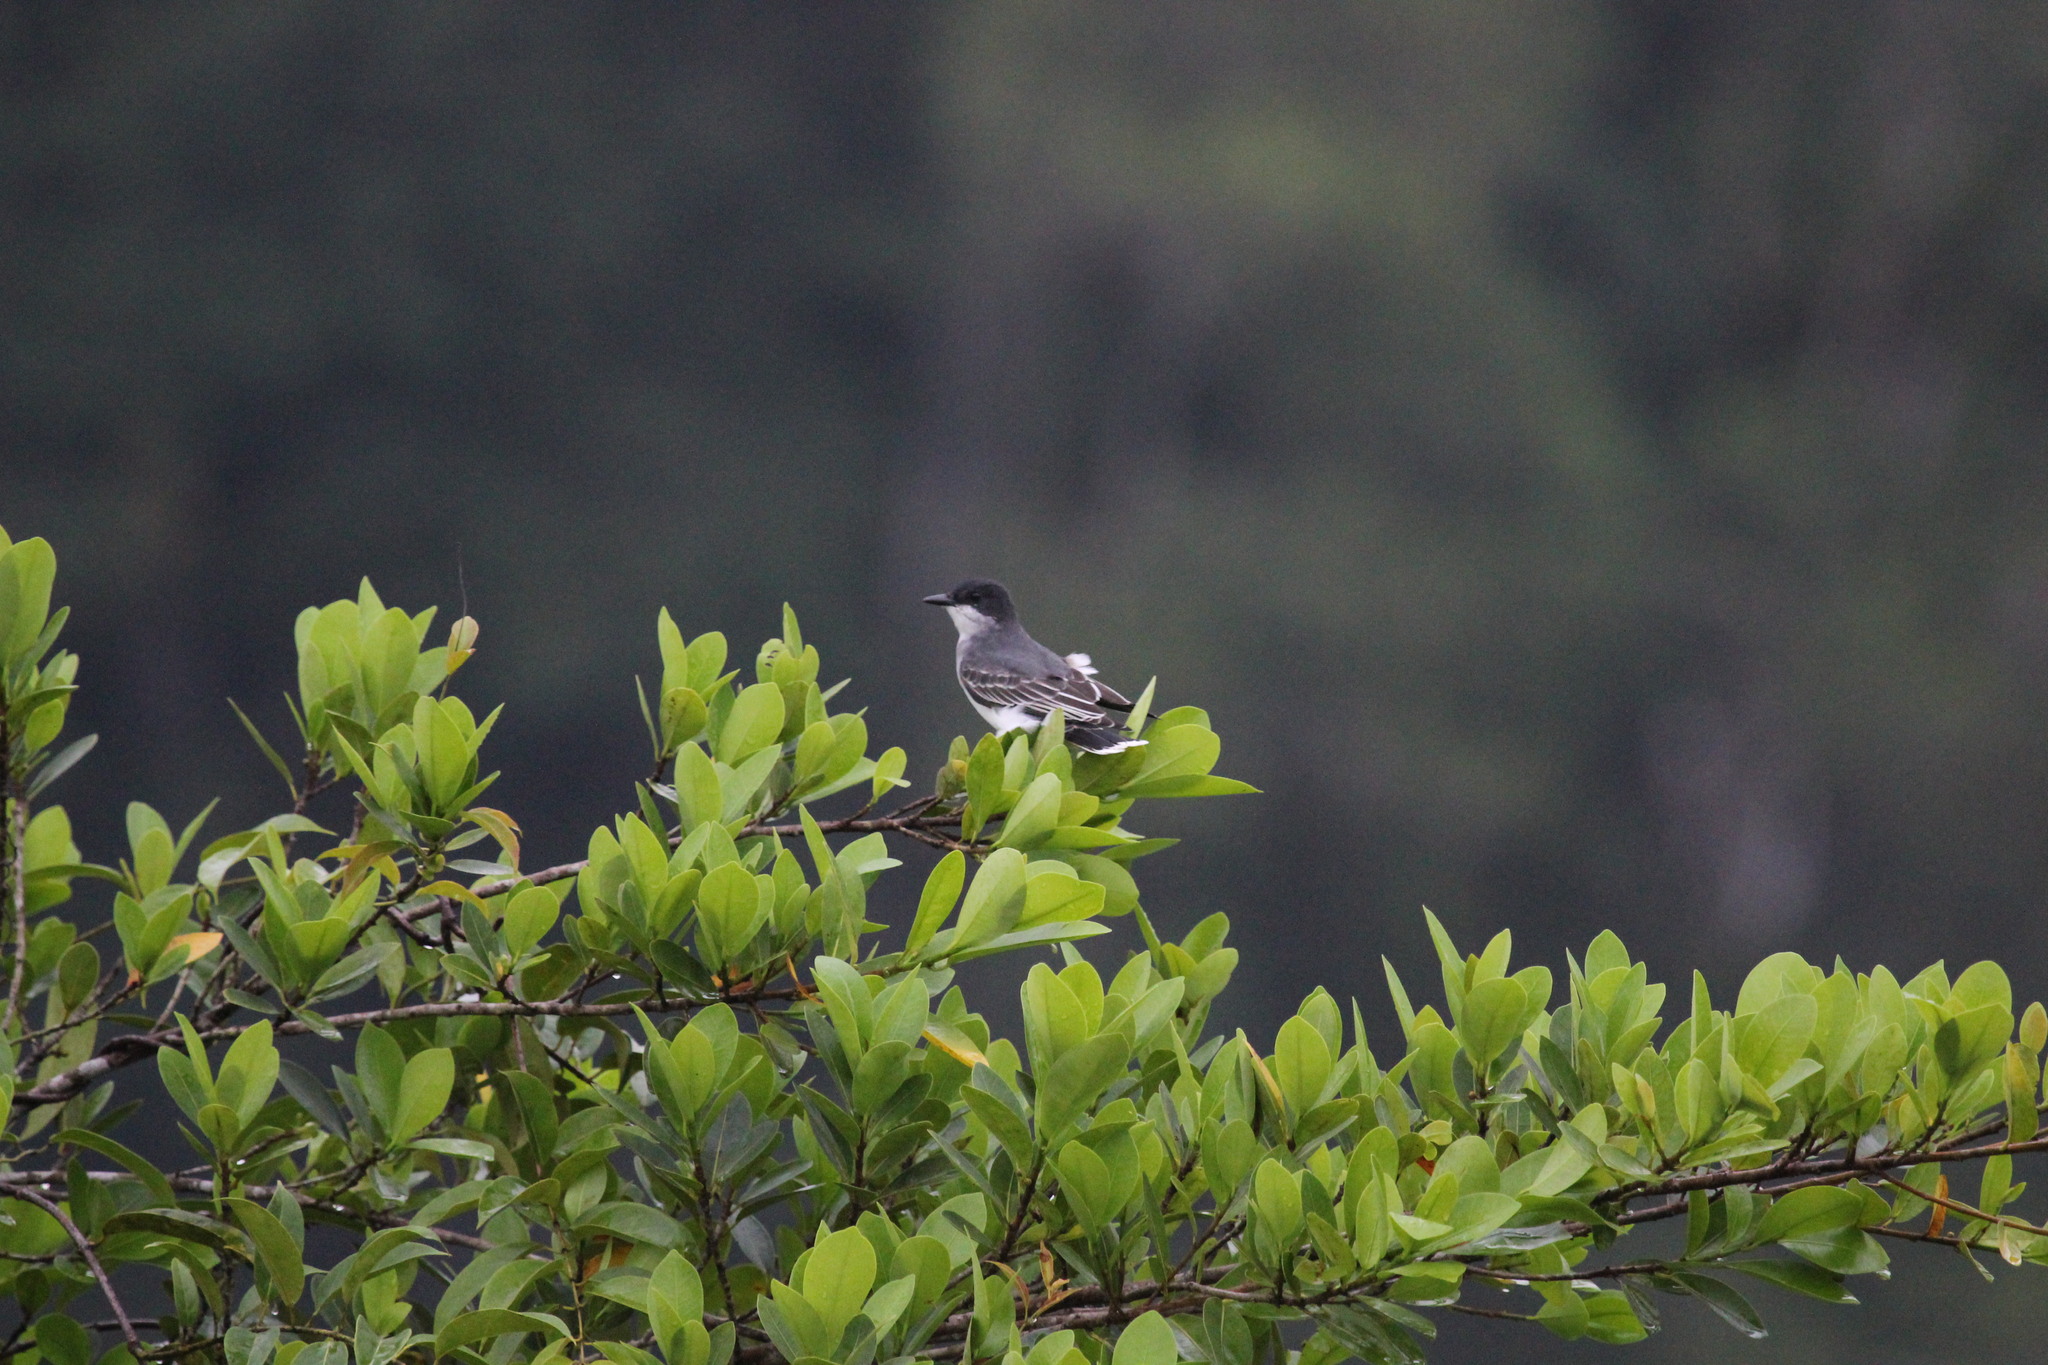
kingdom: Animalia
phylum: Chordata
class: Aves
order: Passeriformes
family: Tyrannidae
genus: Tyrannus
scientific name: Tyrannus tyrannus
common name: Eastern kingbird
